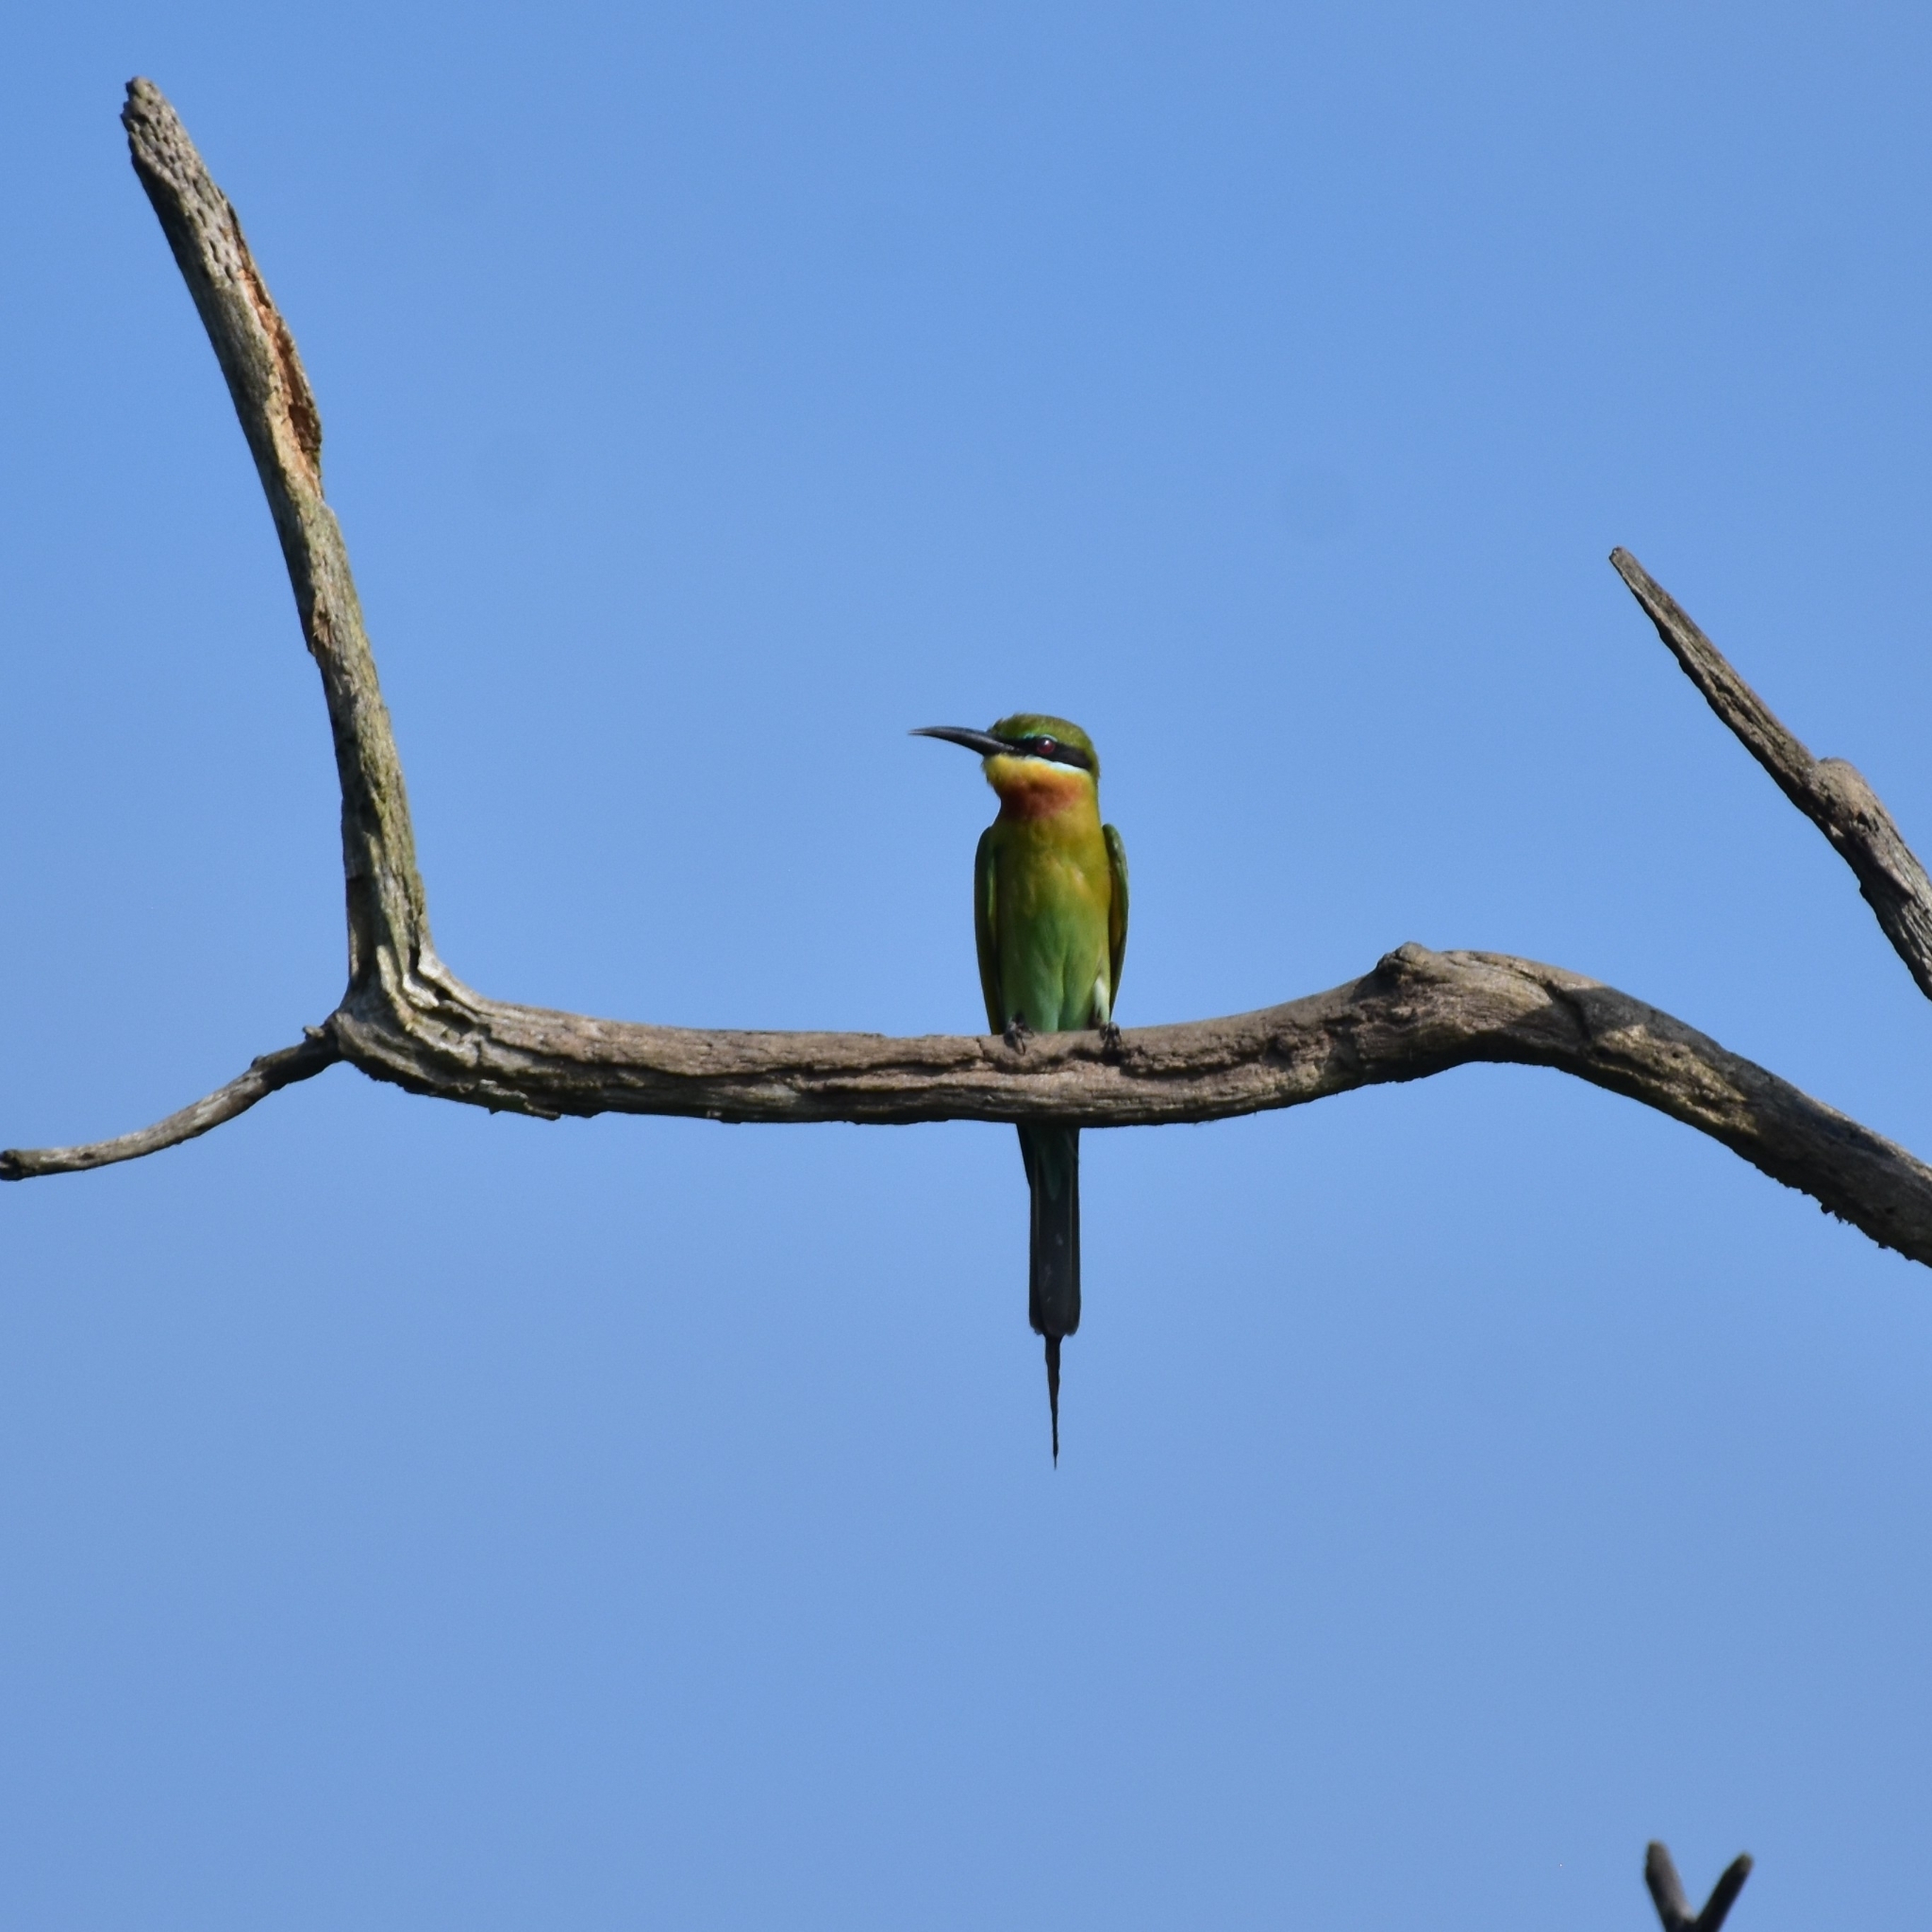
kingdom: Animalia
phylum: Chordata
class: Aves
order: Coraciiformes
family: Meropidae
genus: Merops
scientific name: Merops philippinus
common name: Blue-tailed bee-eater
